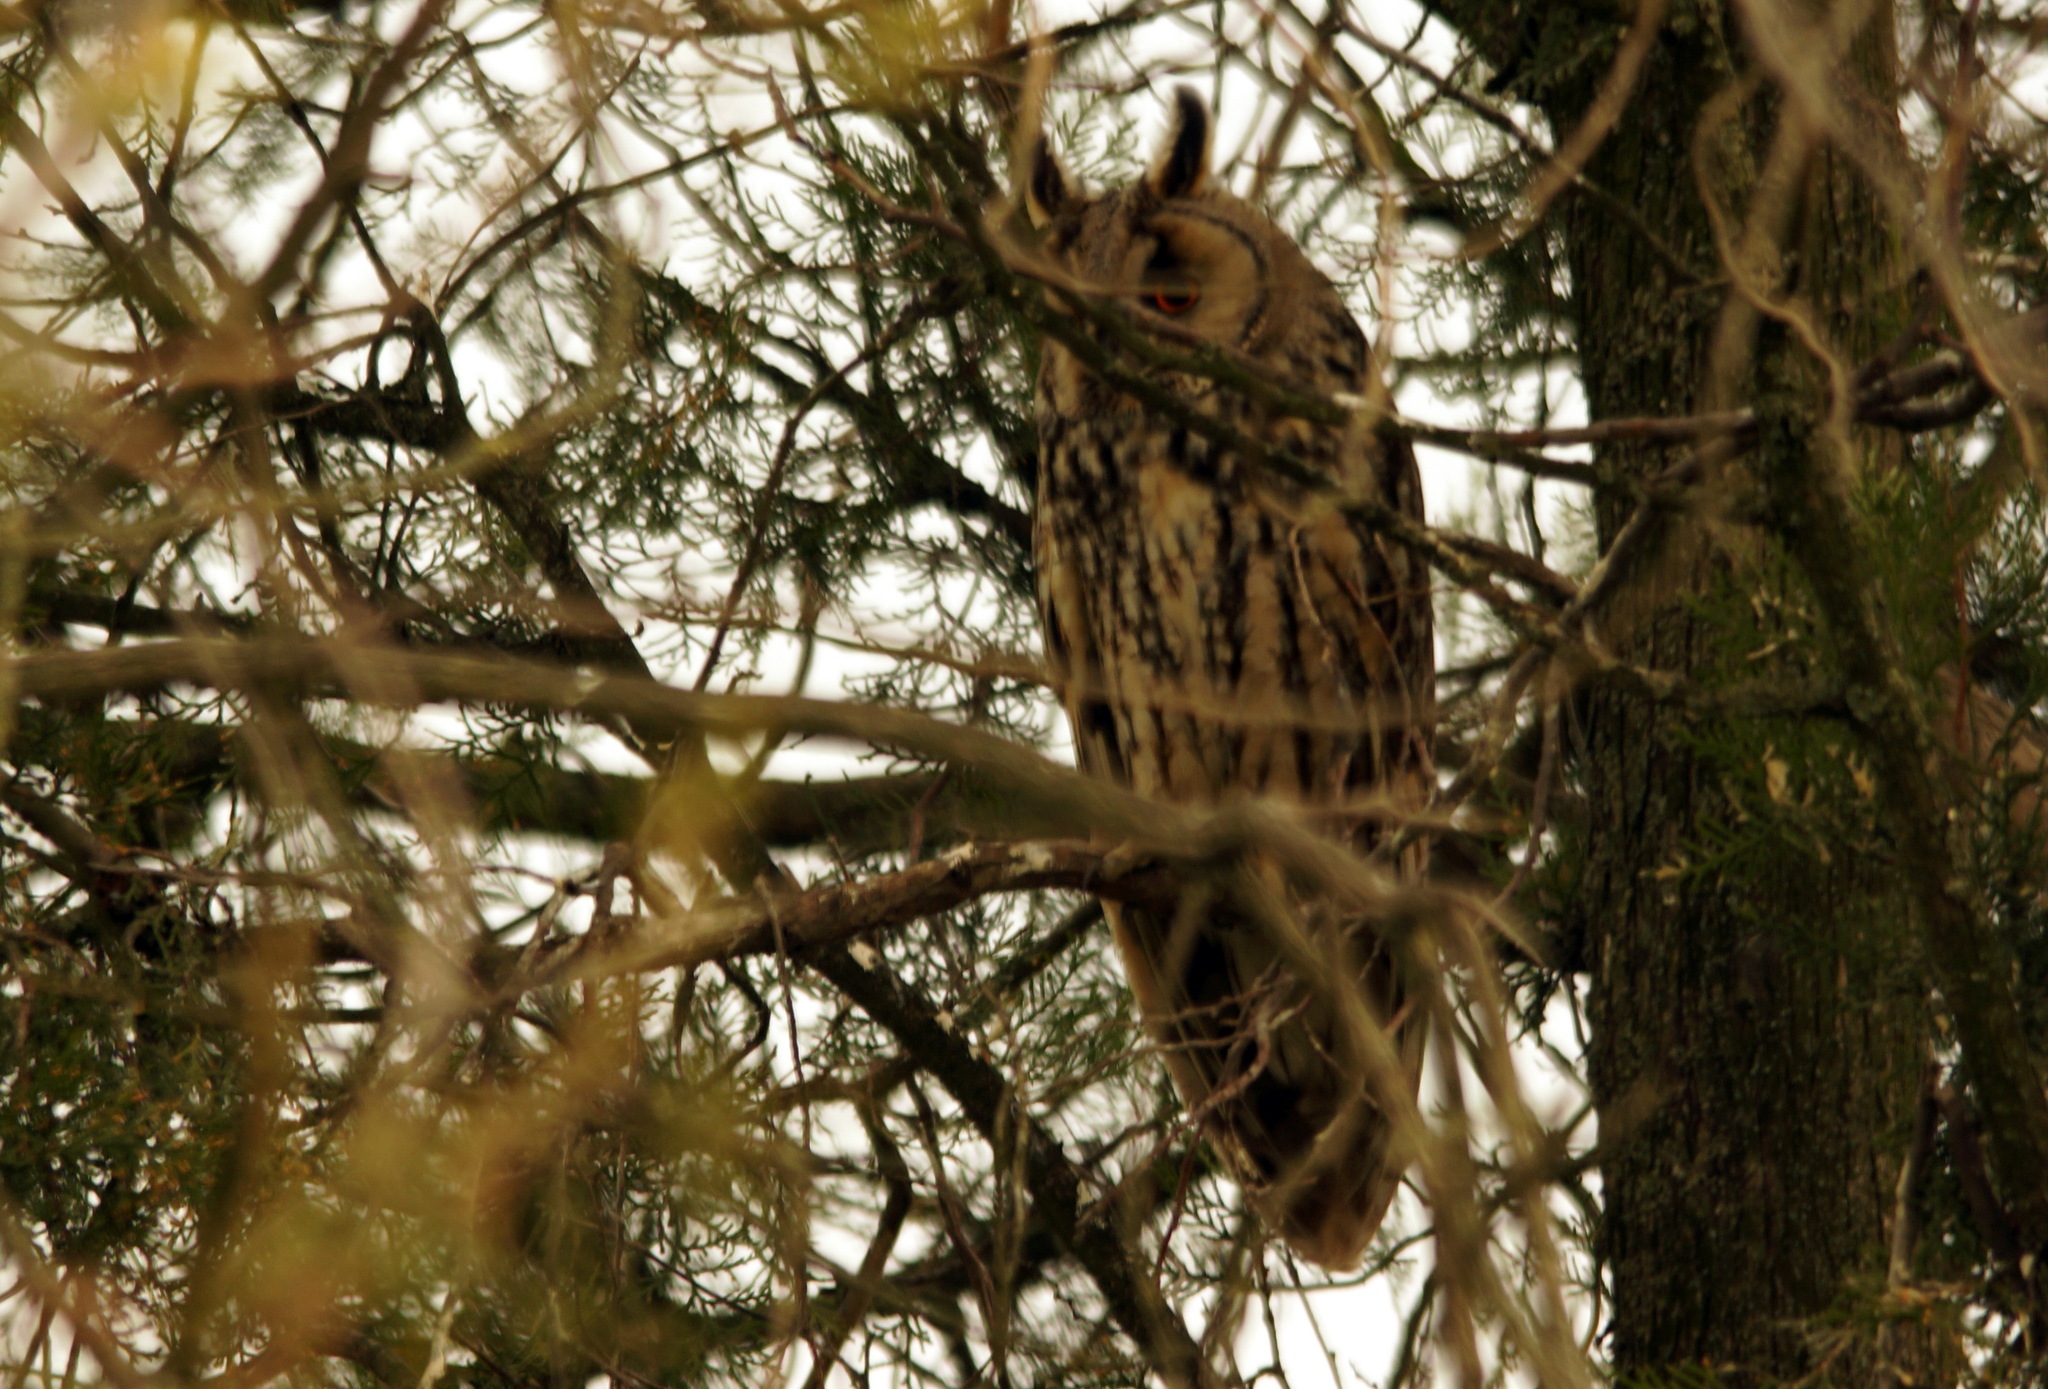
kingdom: Animalia
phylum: Chordata
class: Aves
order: Strigiformes
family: Strigidae
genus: Asio
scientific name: Asio otus
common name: Long-eared owl
